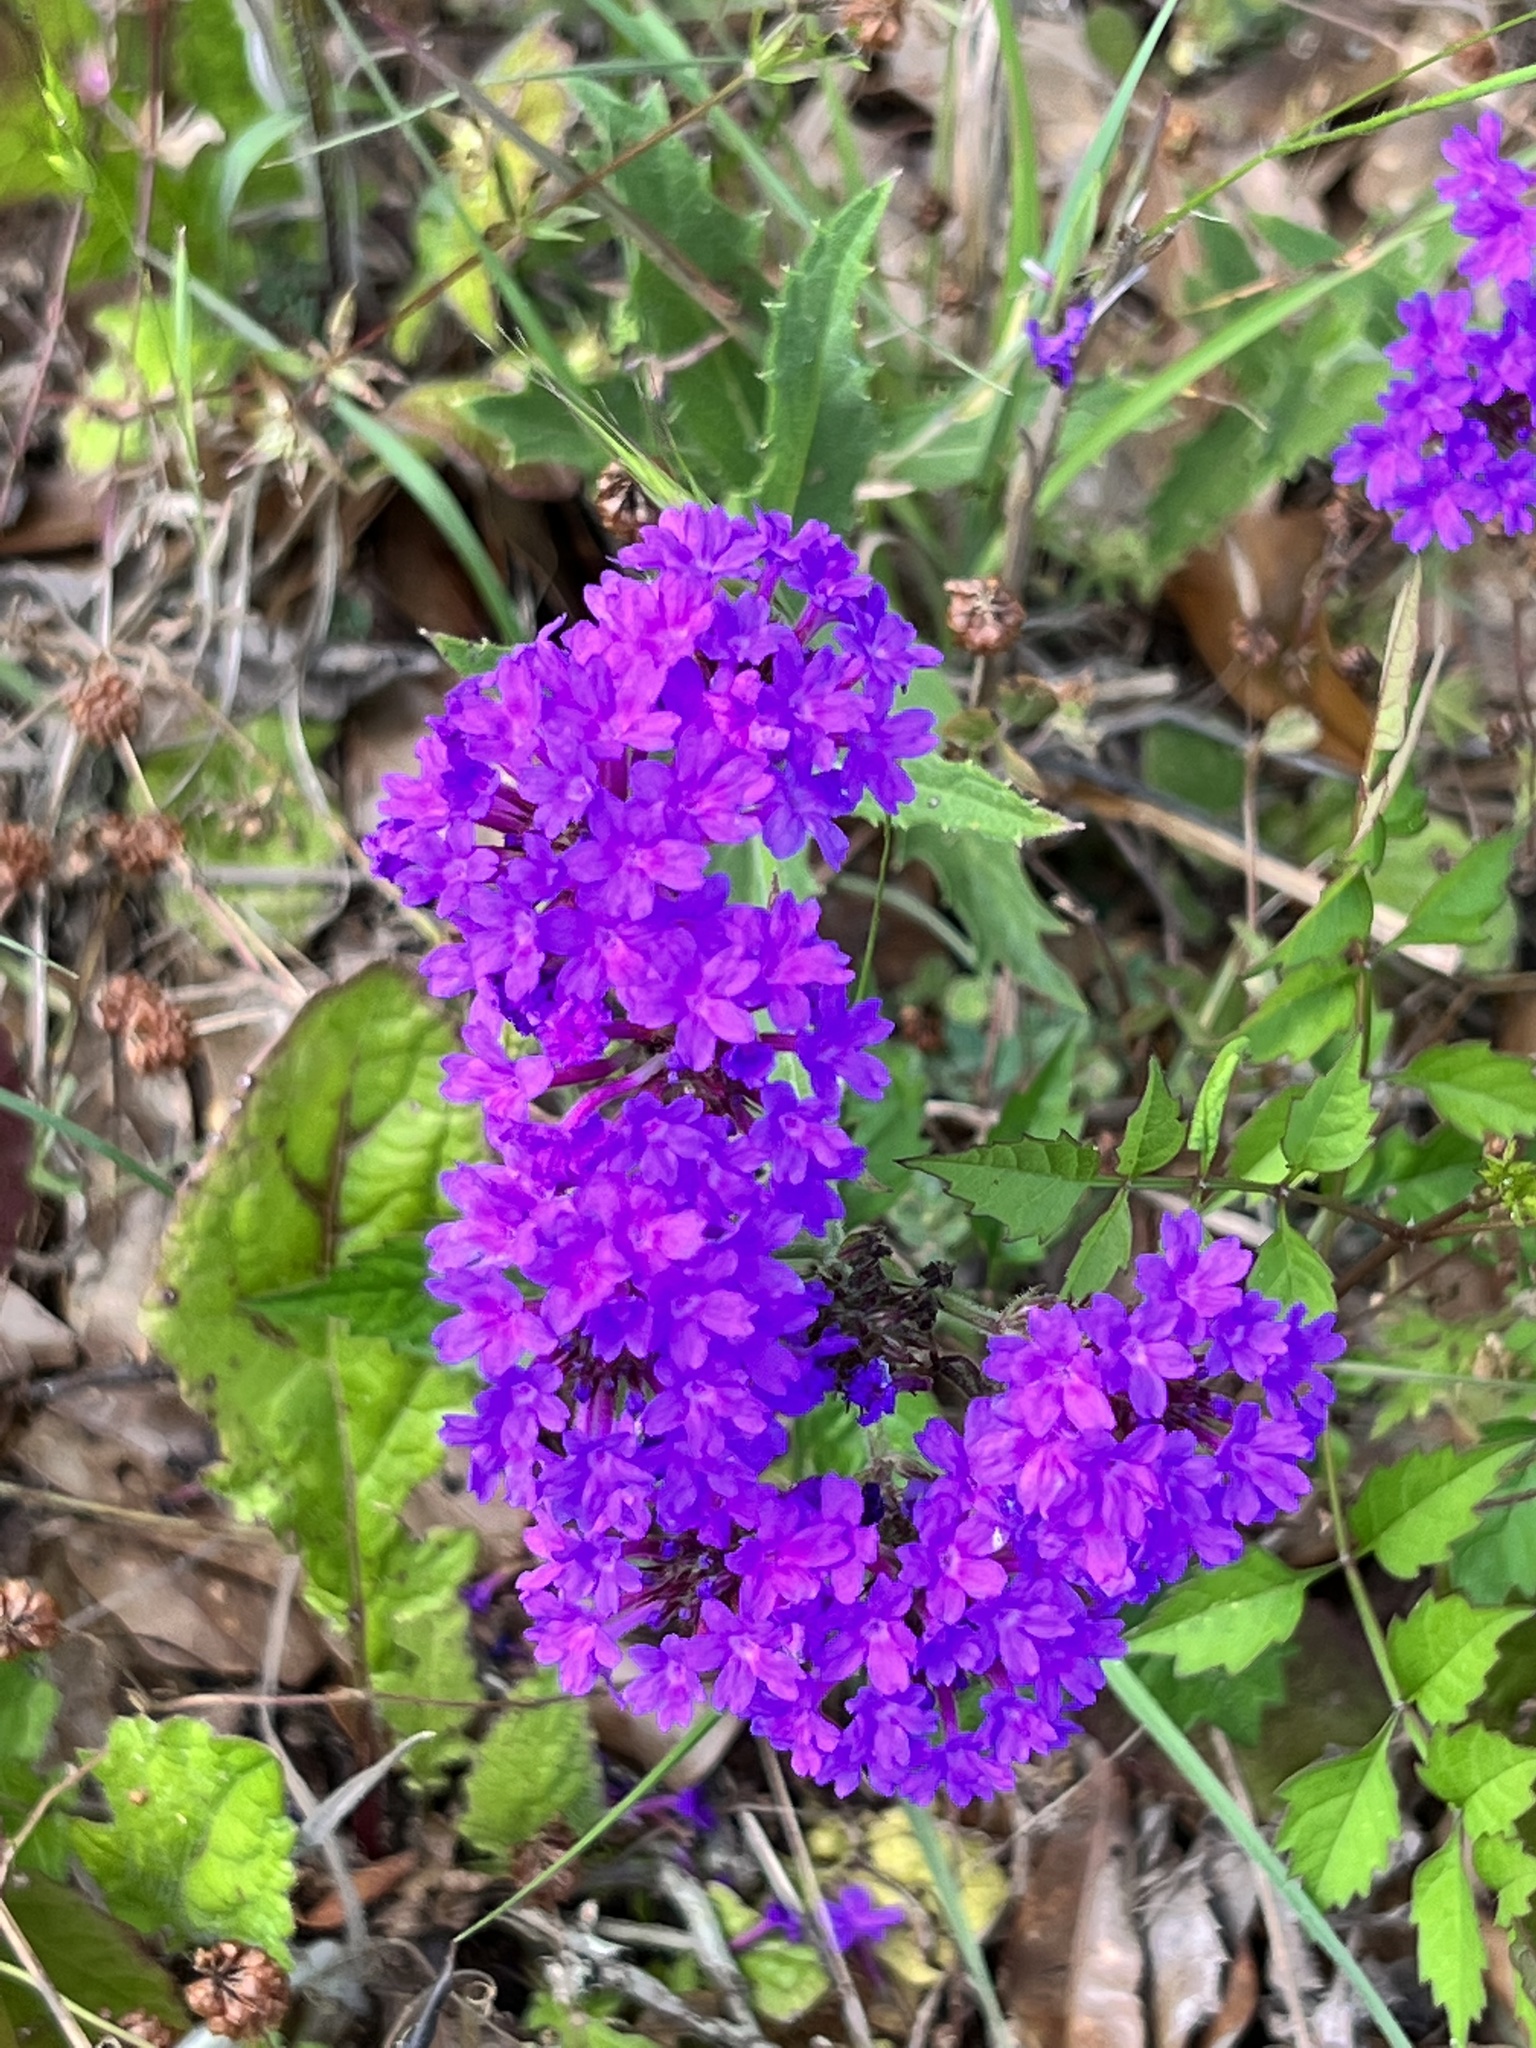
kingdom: Plantae
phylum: Tracheophyta
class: Magnoliopsida
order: Lamiales
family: Verbenaceae
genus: Verbena
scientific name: Verbena rigida
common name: Slender vervain
